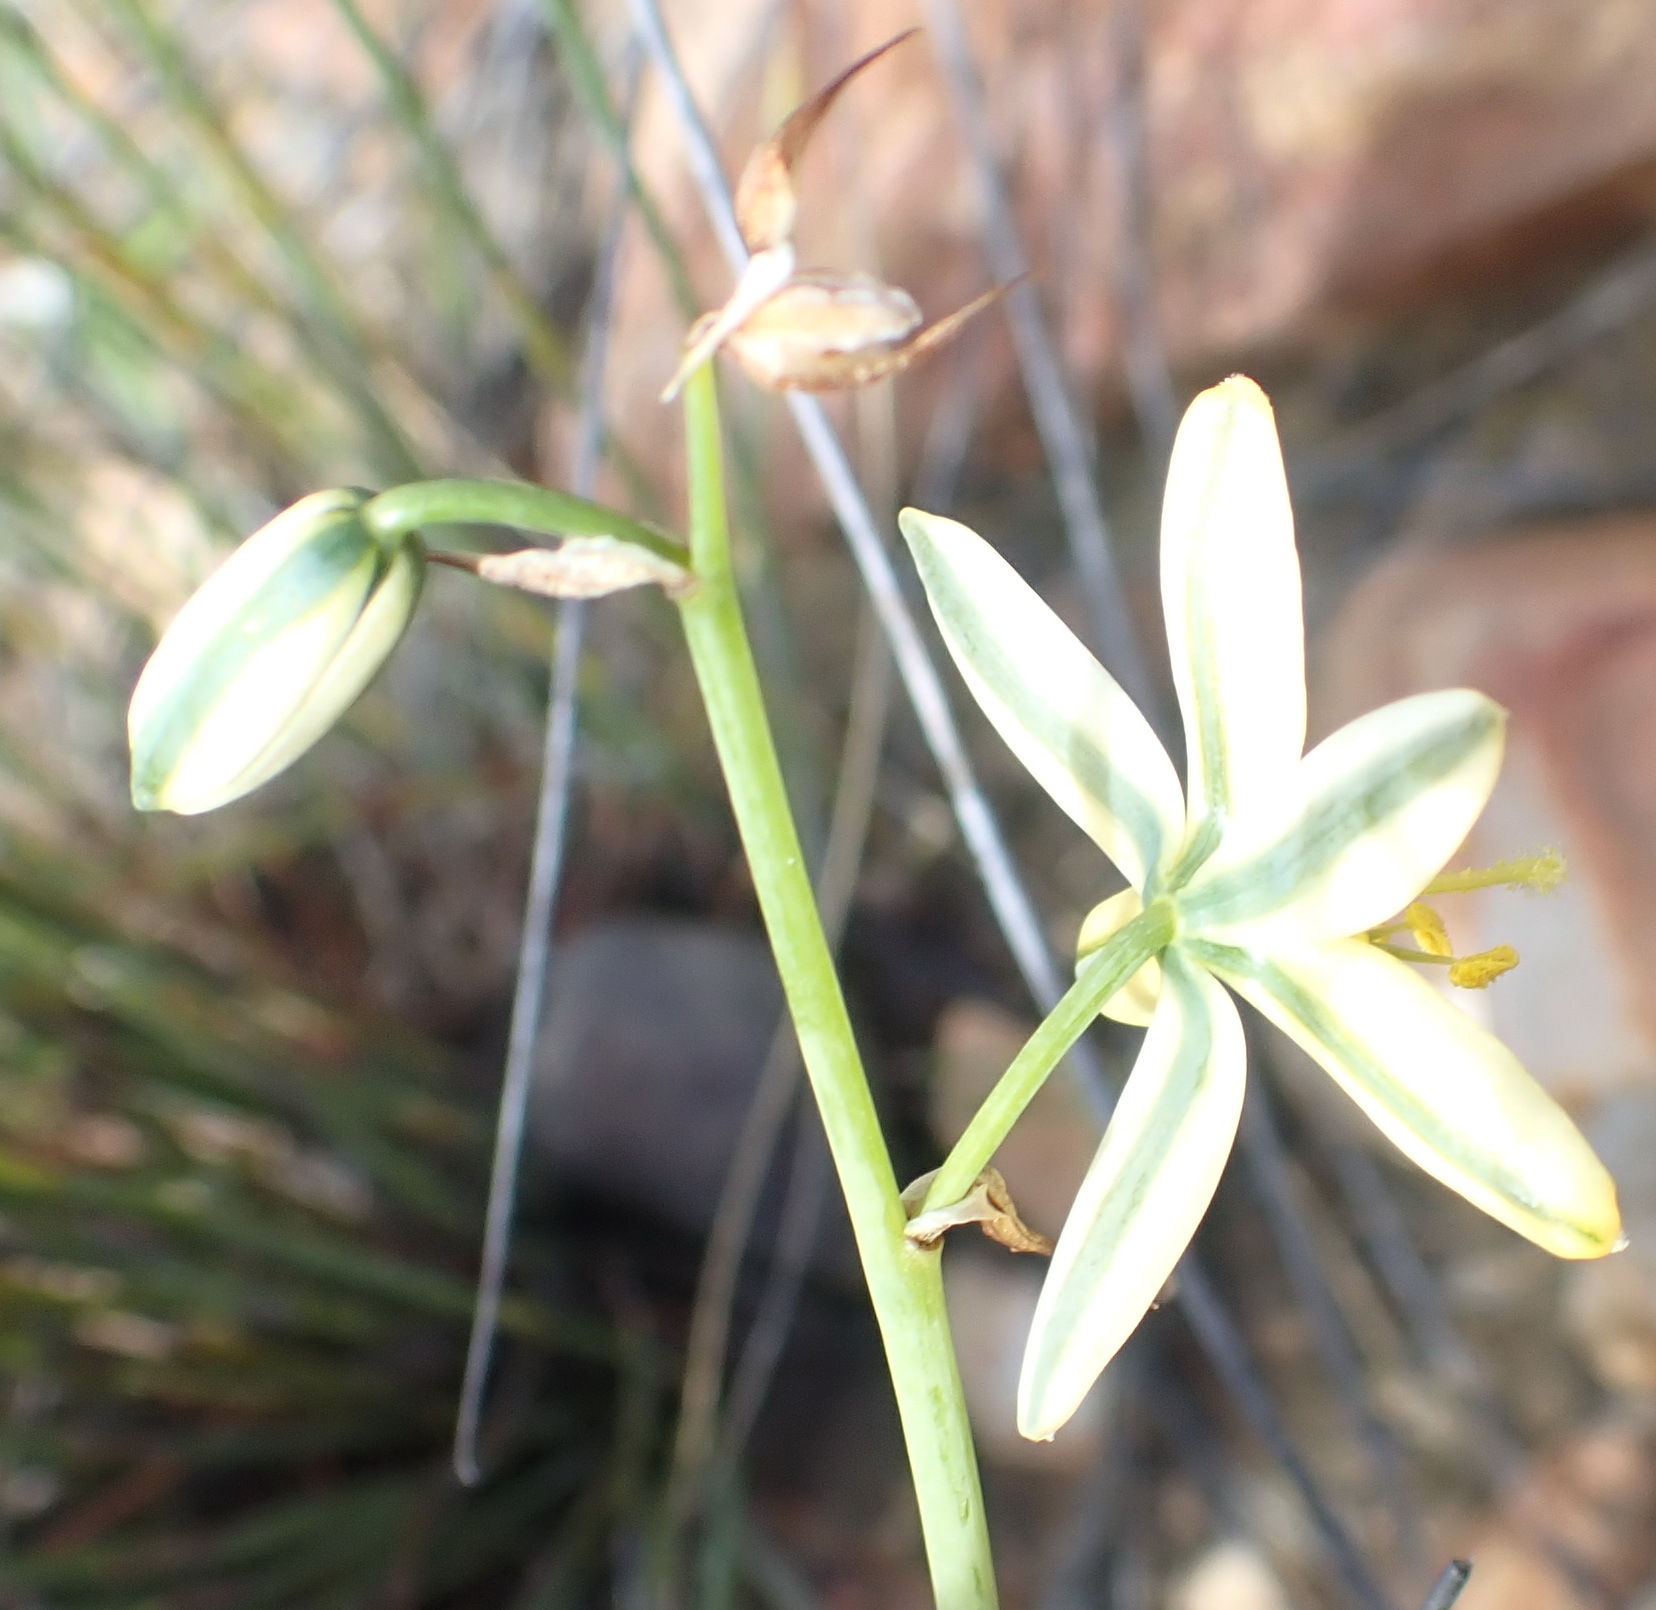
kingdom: Plantae
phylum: Tracheophyta
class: Liliopsida
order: Asparagales
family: Asparagaceae
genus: Albuca
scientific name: Albuca suaveolens
